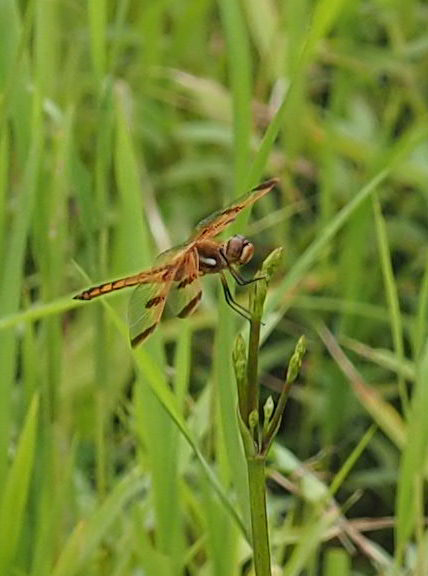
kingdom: Animalia
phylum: Arthropoda
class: Insecta
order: Odonata
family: Libellulidae
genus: Libellula
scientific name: Libellula semifasciata
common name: Painted skimmer
